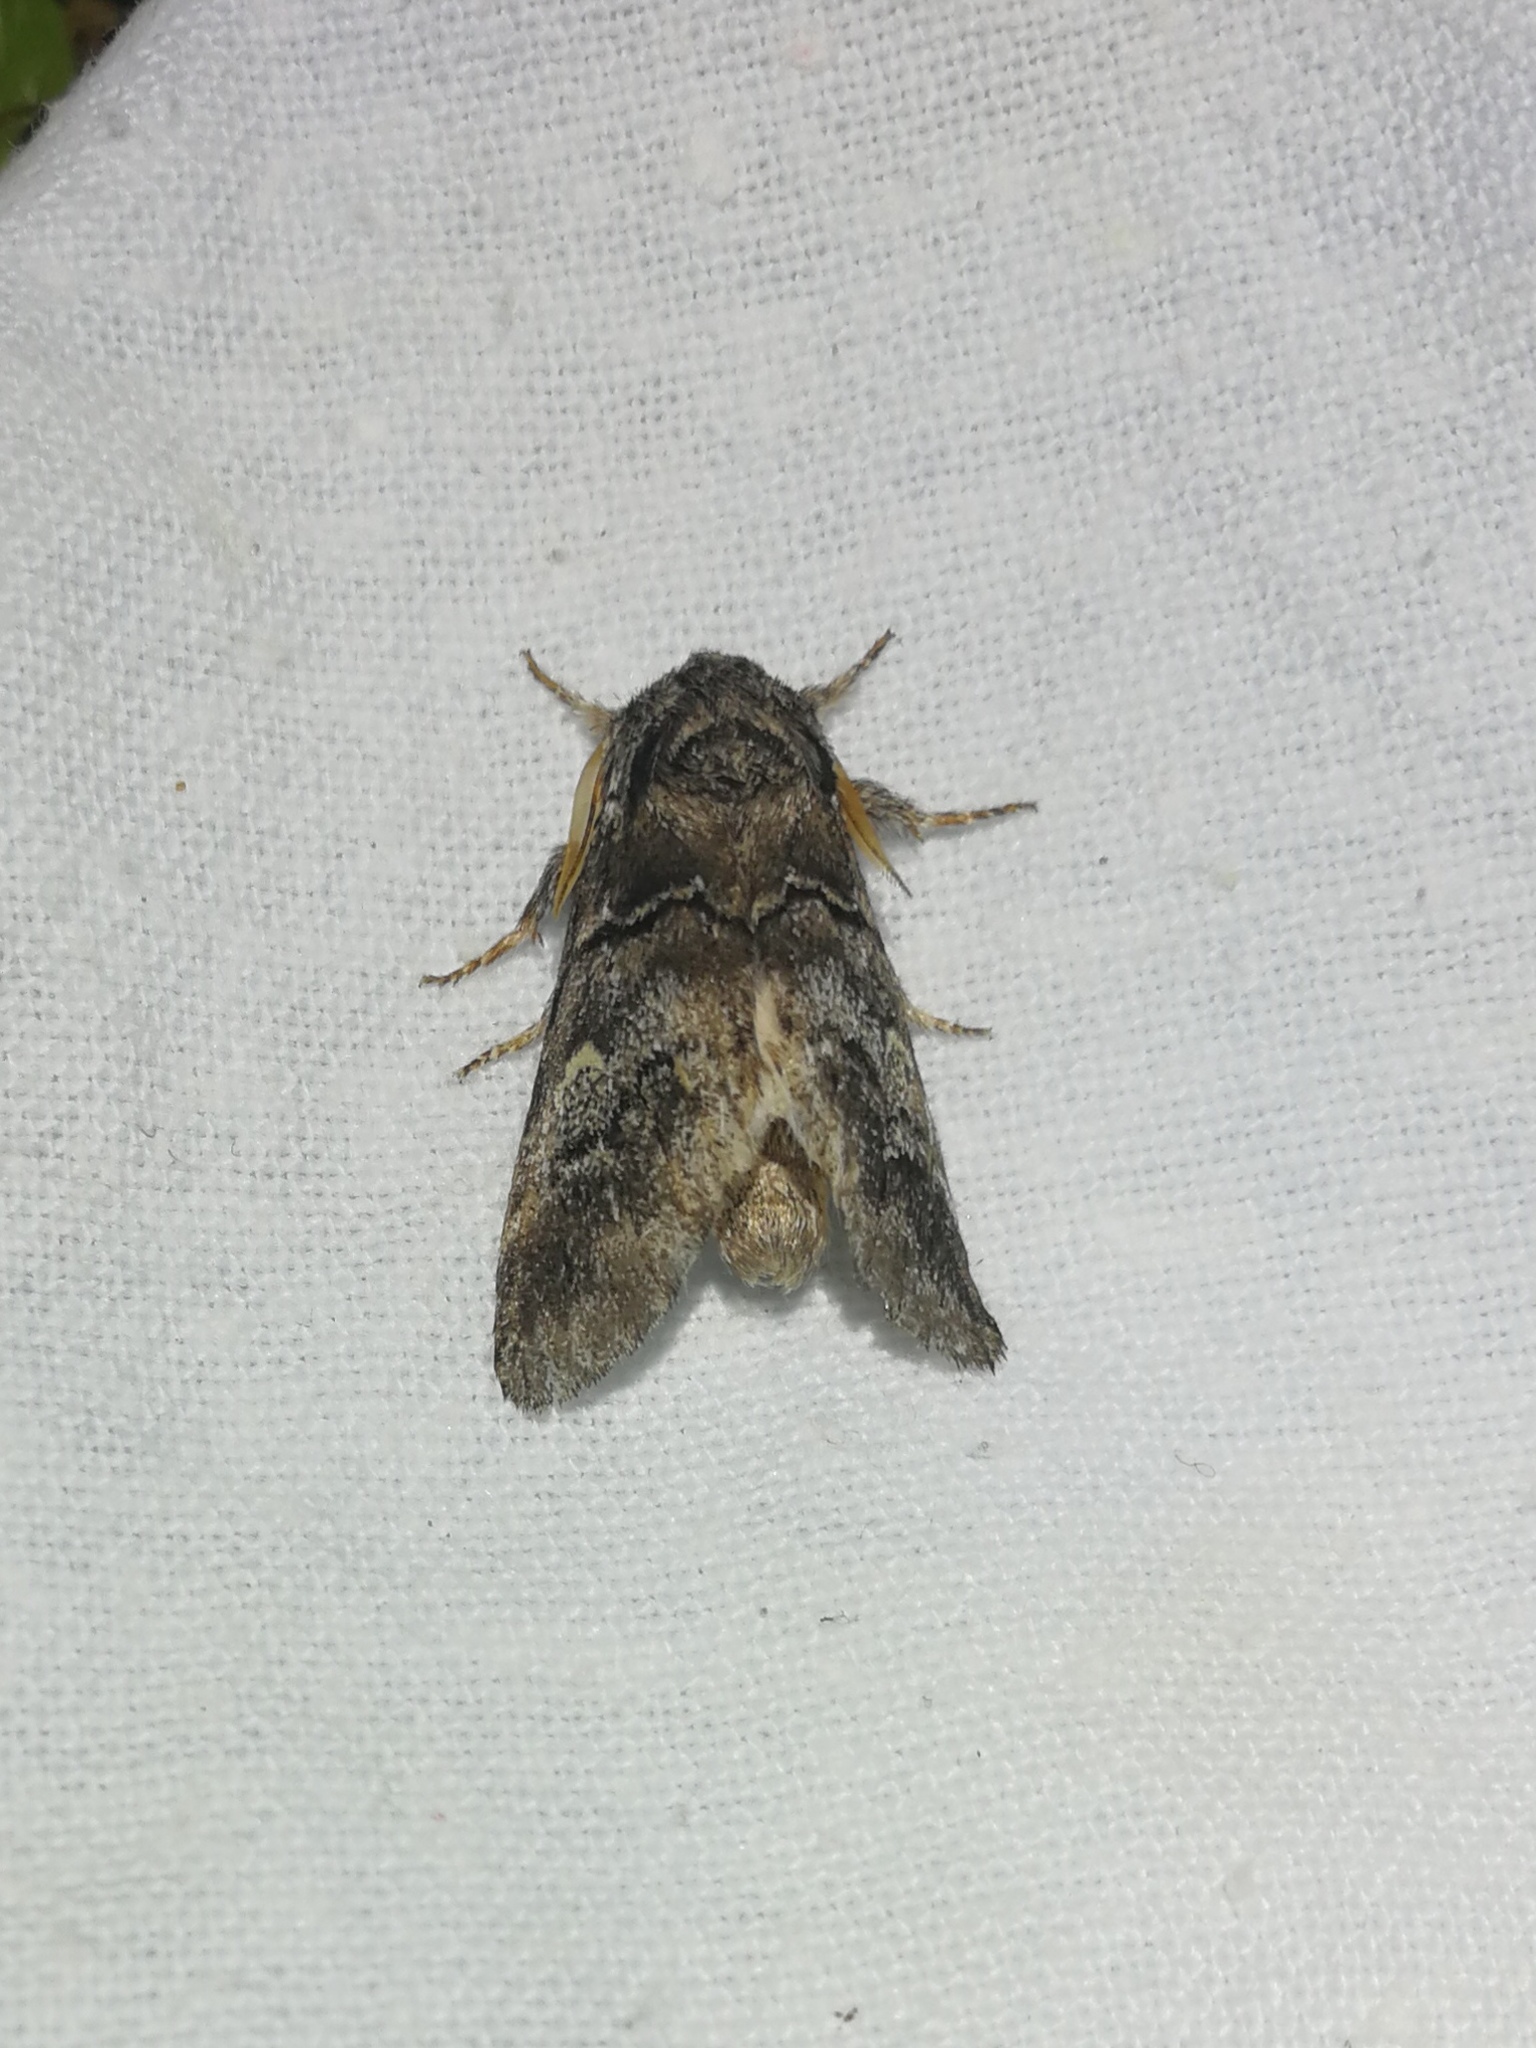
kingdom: Animalia
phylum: Arthropoda
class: Insecta
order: Lepidoptera
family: Notodontidae
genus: Drymonia
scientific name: Drymonia querna
